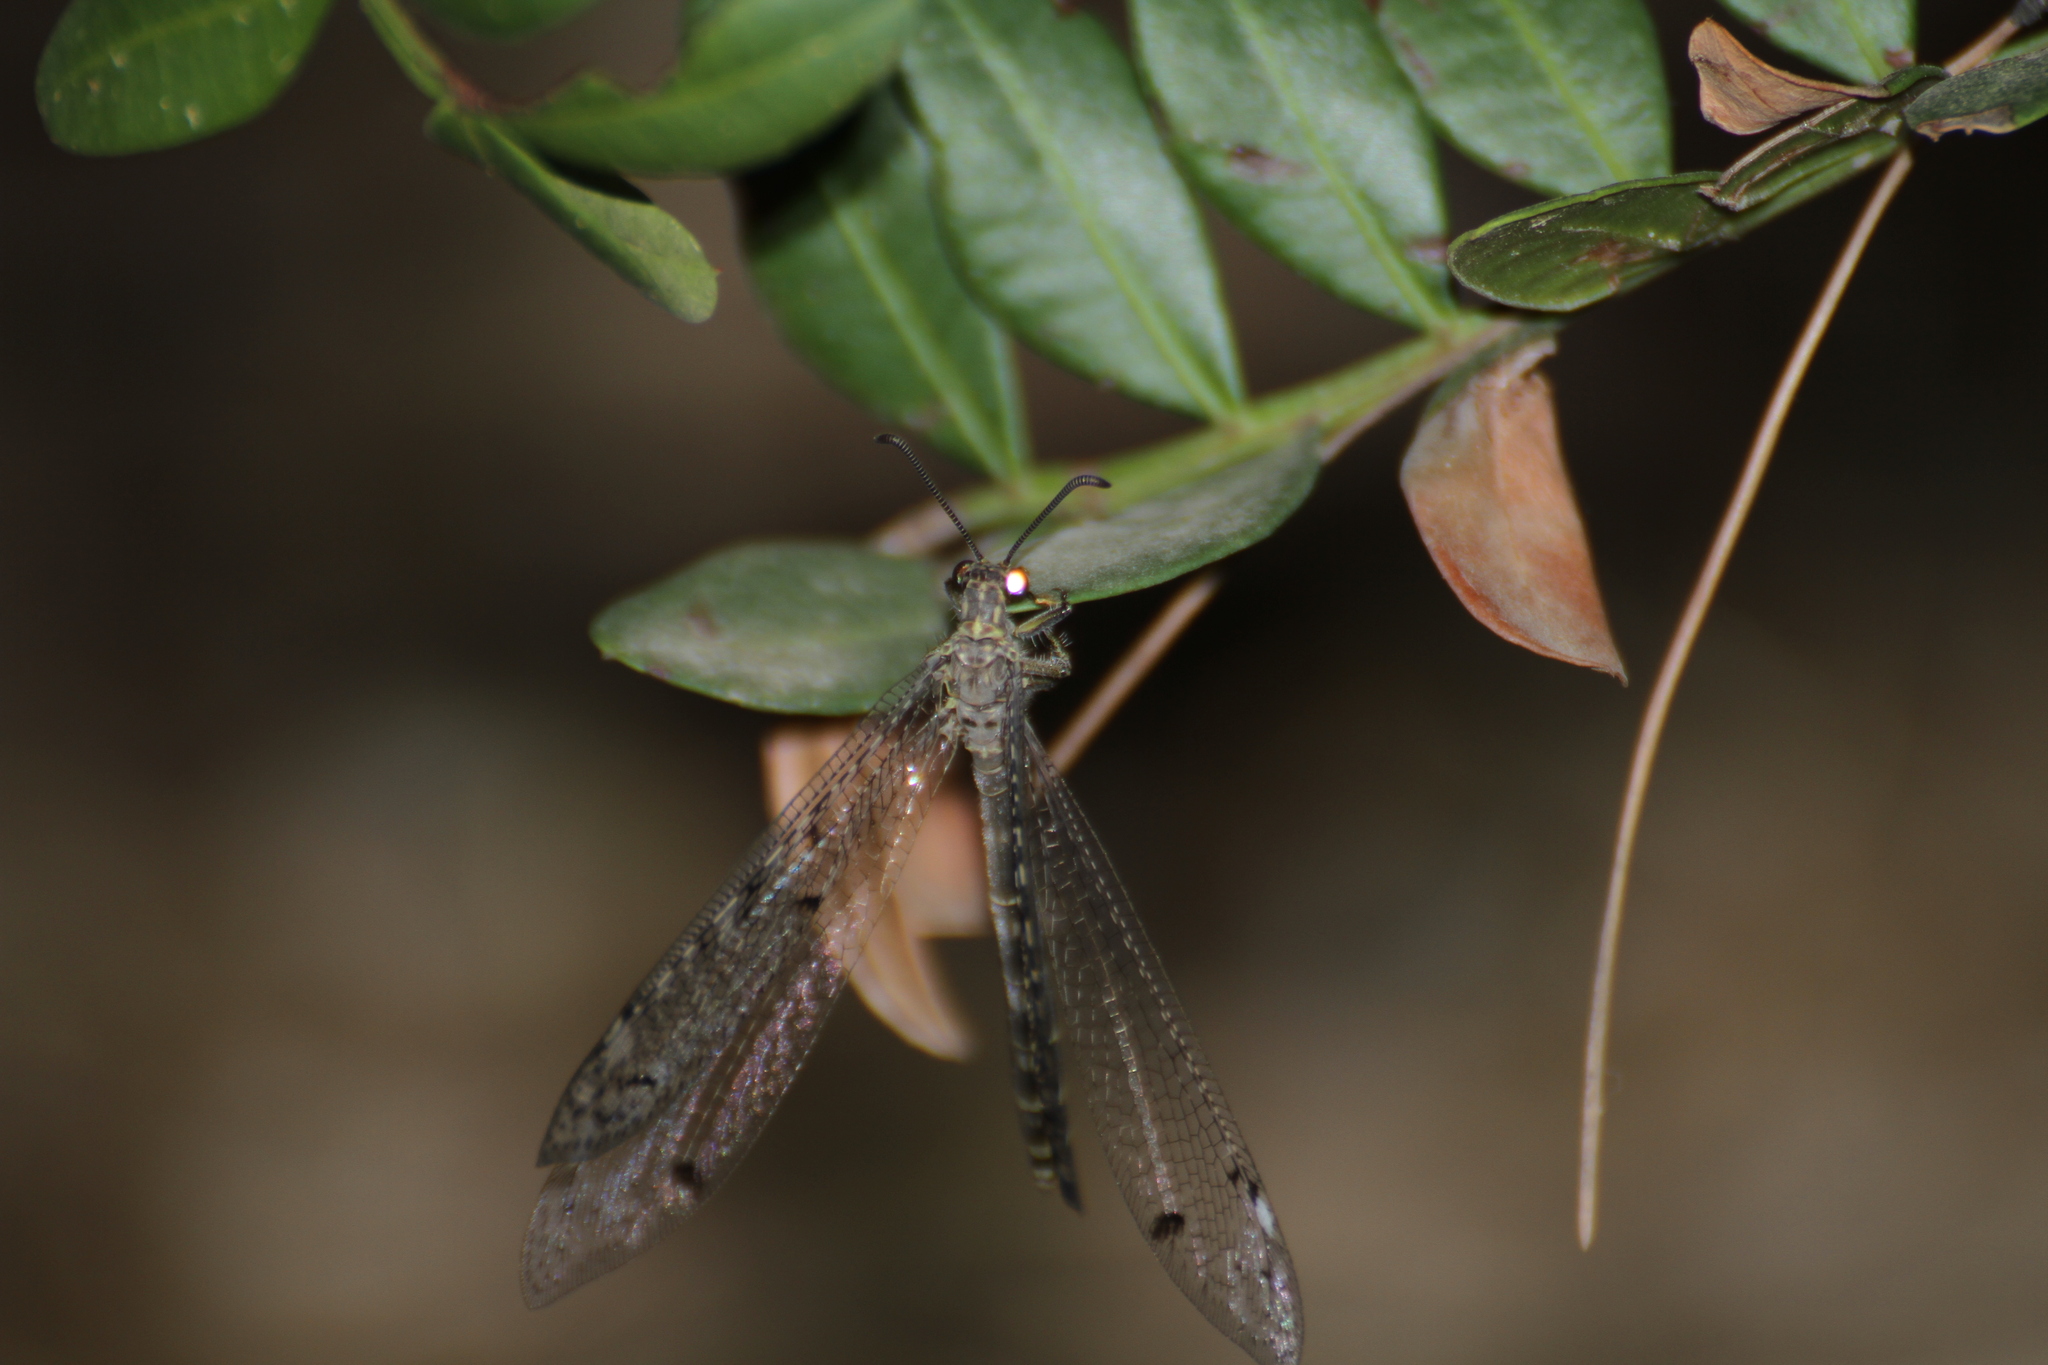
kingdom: Animalia
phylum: Arthropoda
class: Insecta
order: Neuroptera
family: Myrmeleontidae
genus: Distoleon
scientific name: Distoleon tetragrammicus
